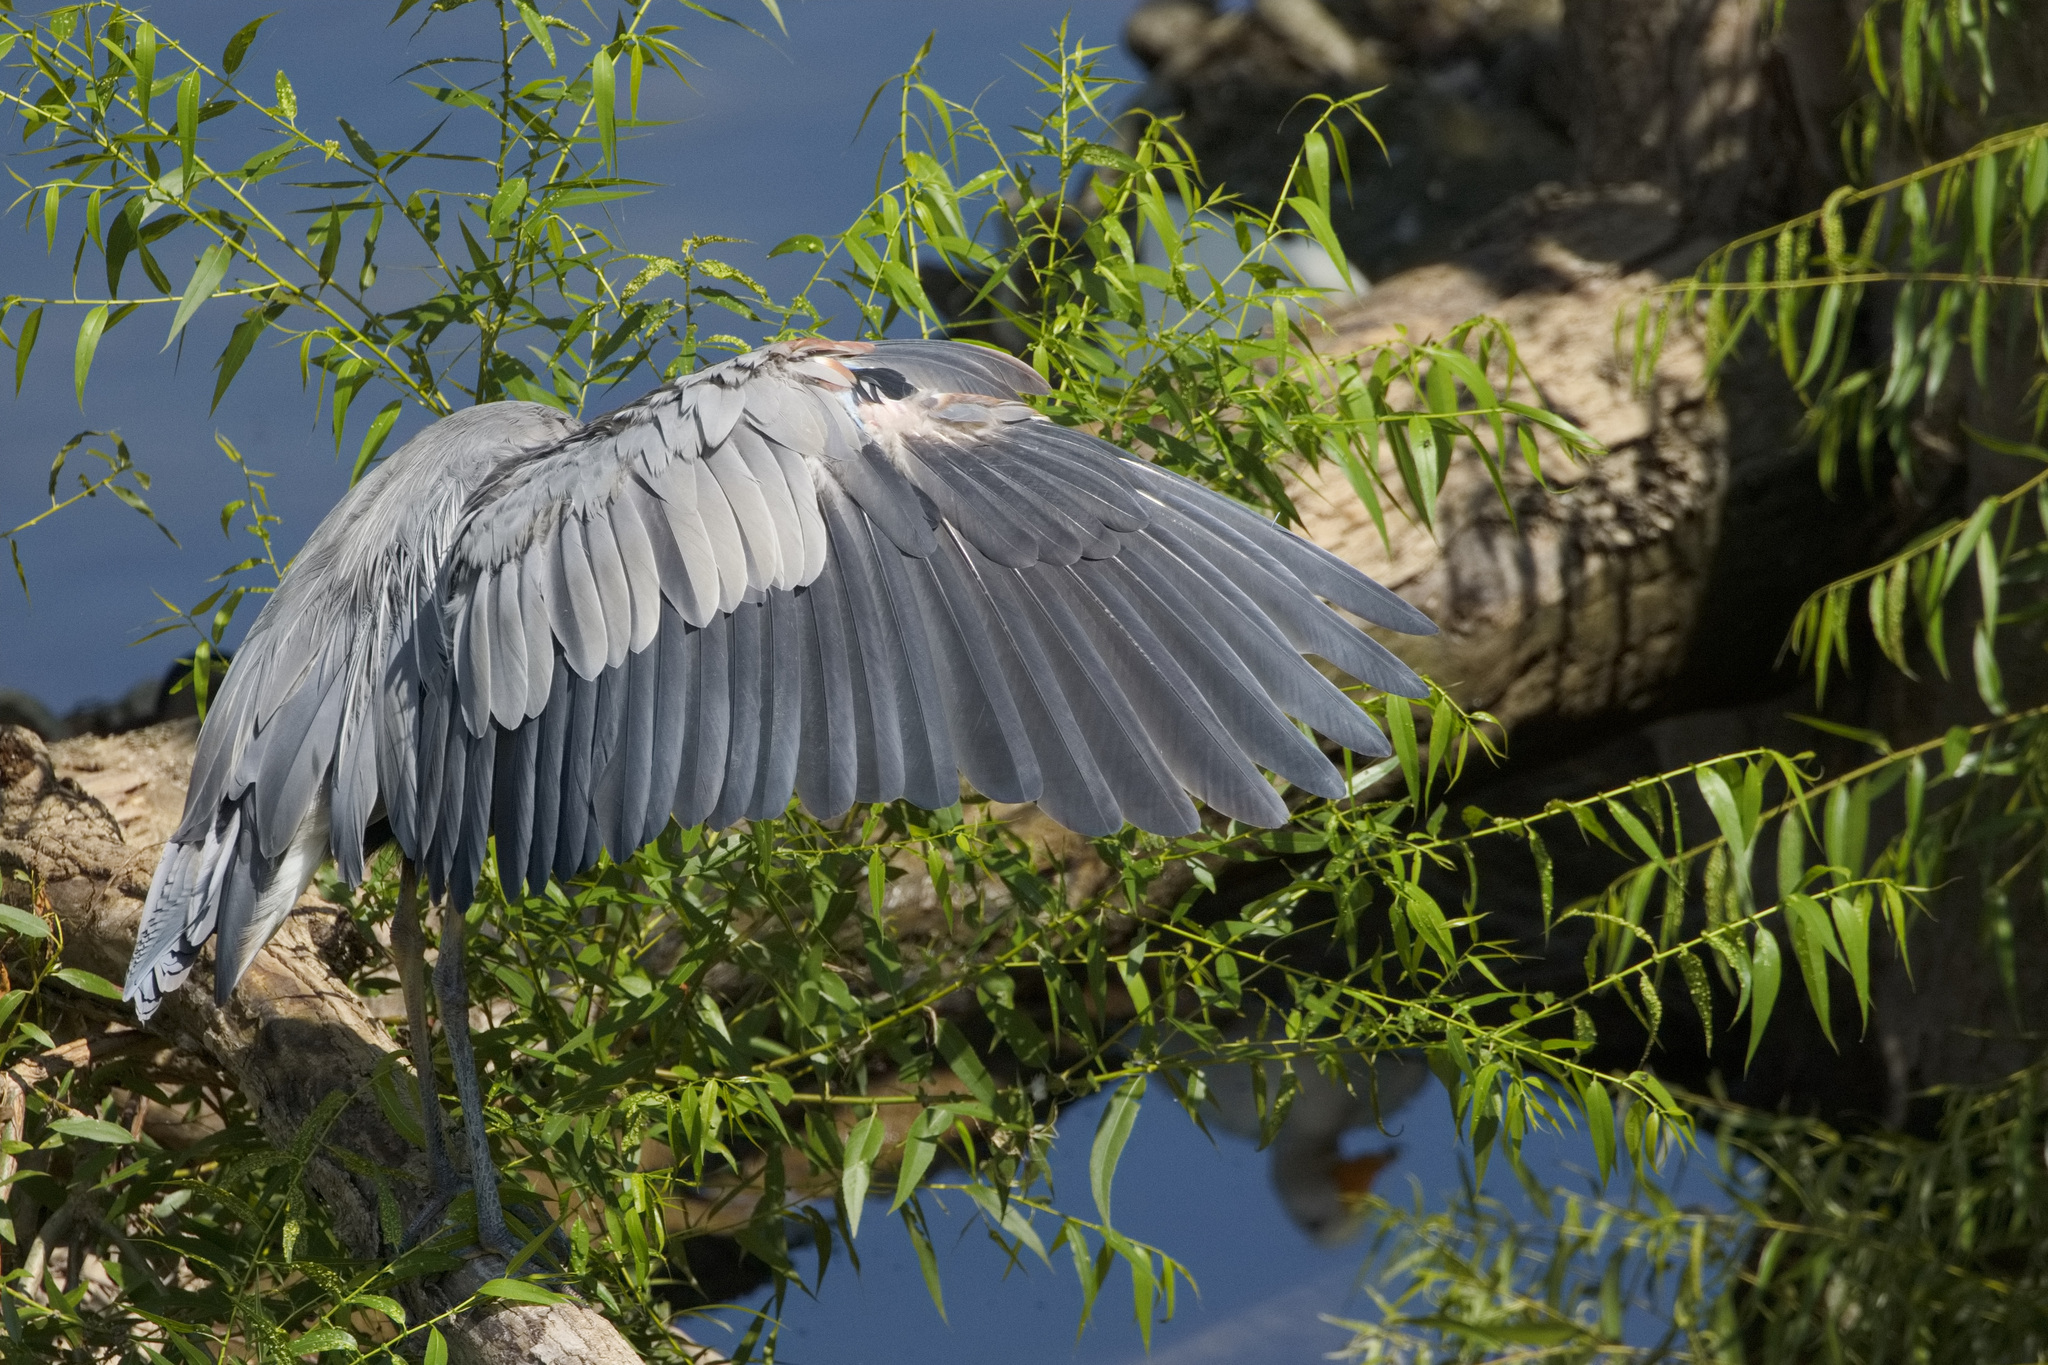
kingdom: Animalia
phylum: Chordata
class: Aves
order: Pelecaniformes
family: Ardeidae
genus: Ardea
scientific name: Ardea herodias
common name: Great blue heron
